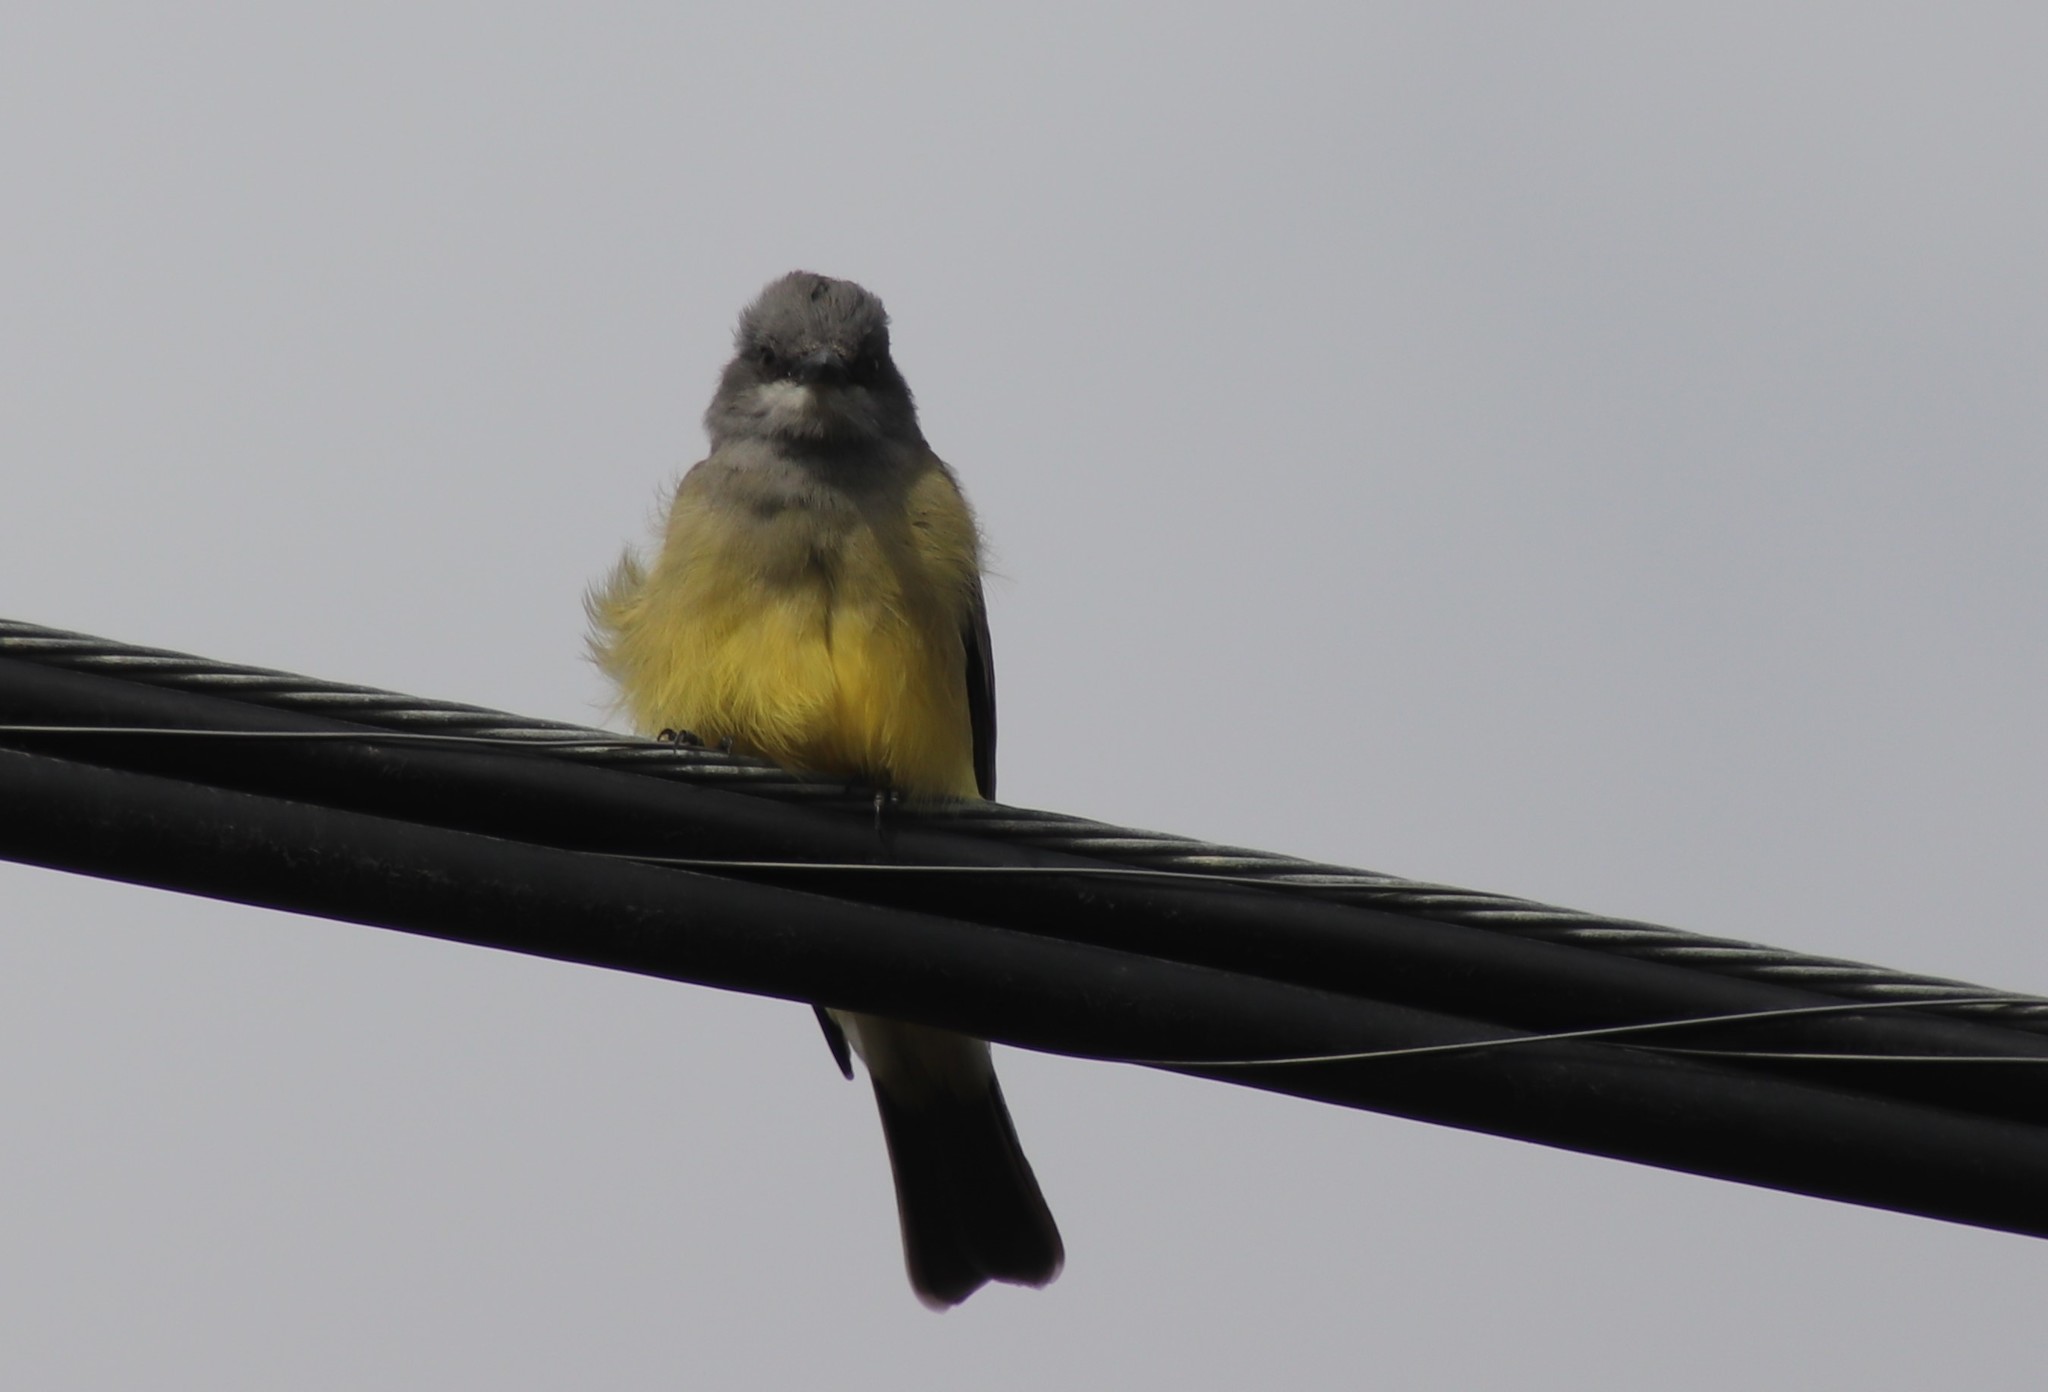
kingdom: Animalia
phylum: Chordata
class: Aves
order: Passeriformes
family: Tyrannidae
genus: Tyrannus
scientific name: Tyrannus vociferans
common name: Cassin's kingbird
